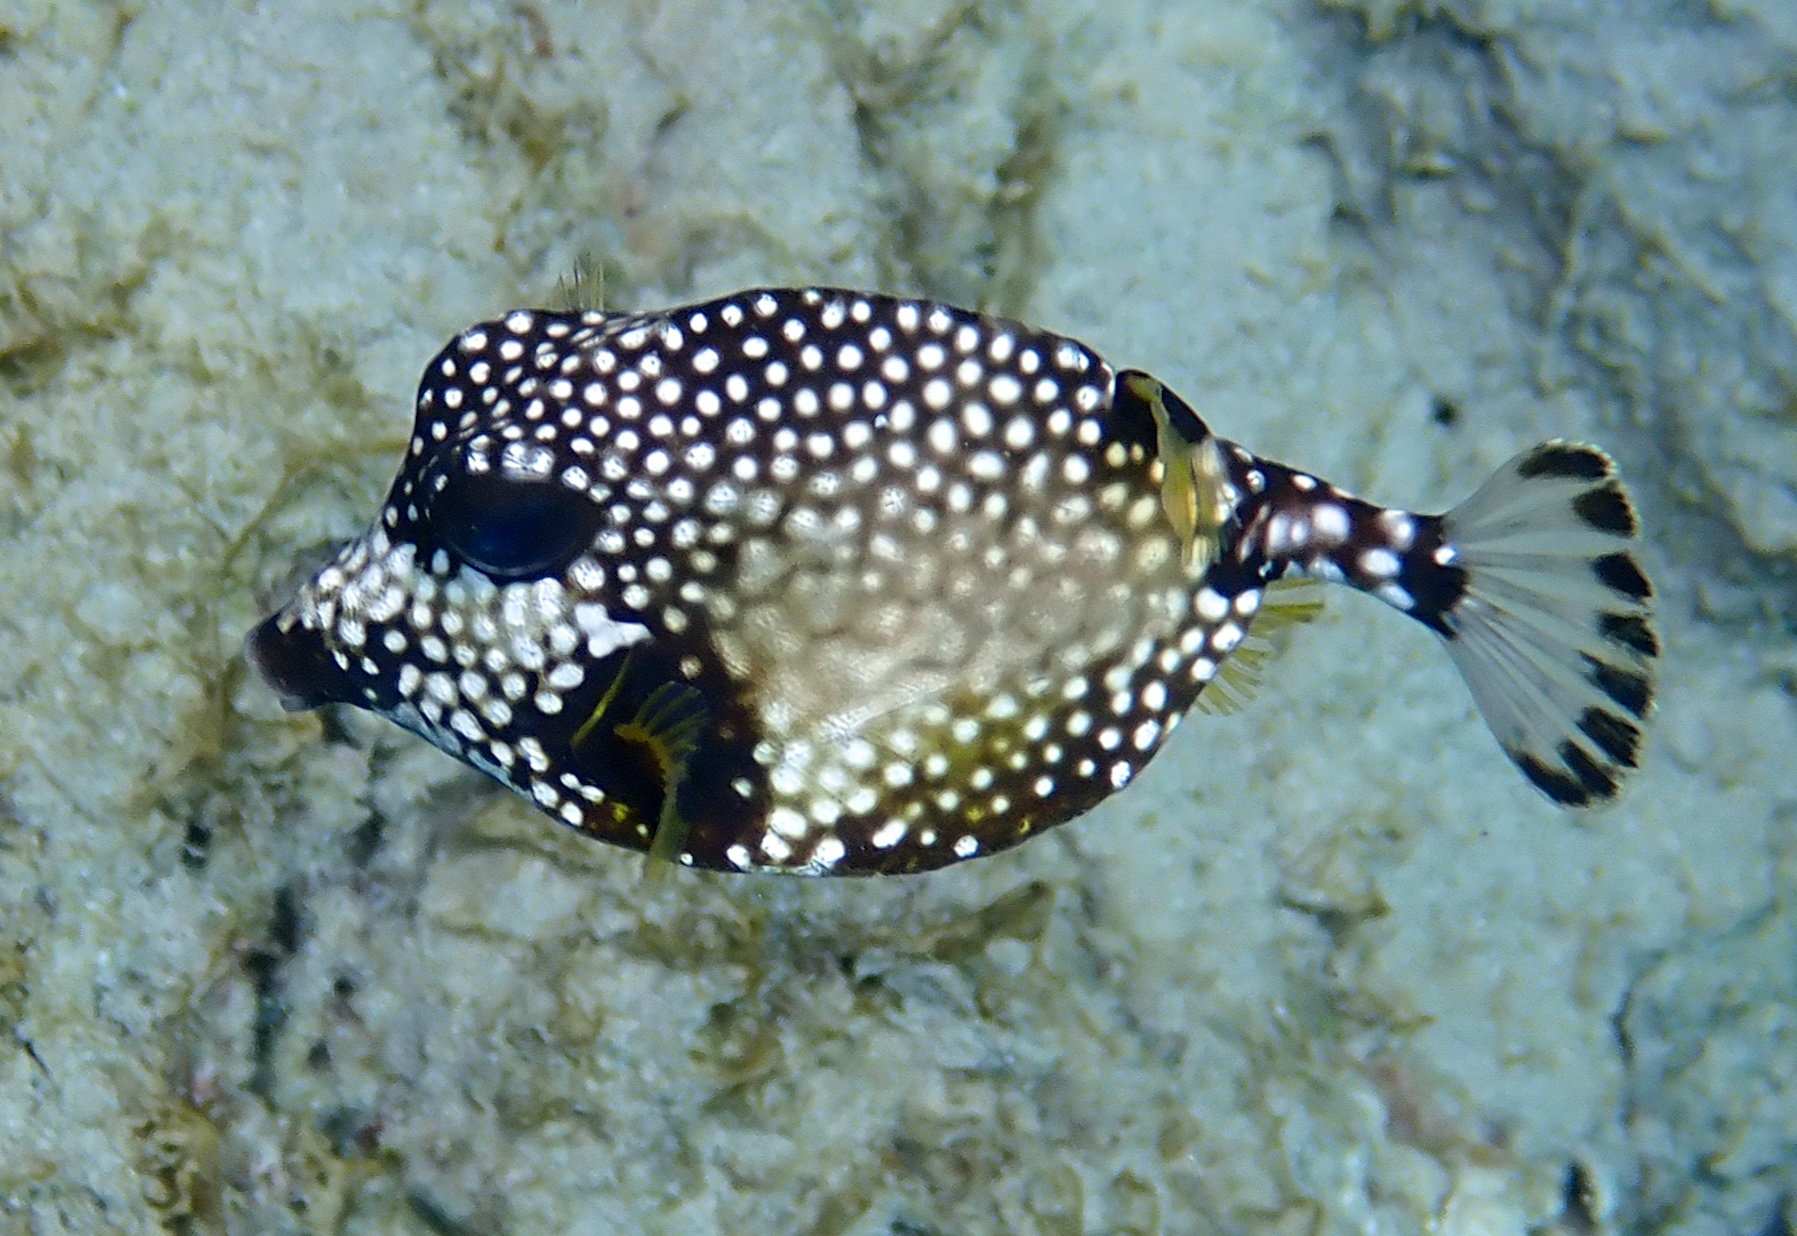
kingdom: Animalia
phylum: Chordata
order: Tetraodontiformes
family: Ostraciidae
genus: Lactophrys
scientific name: Lactophrys triqueter
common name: Smooth trunkfish
